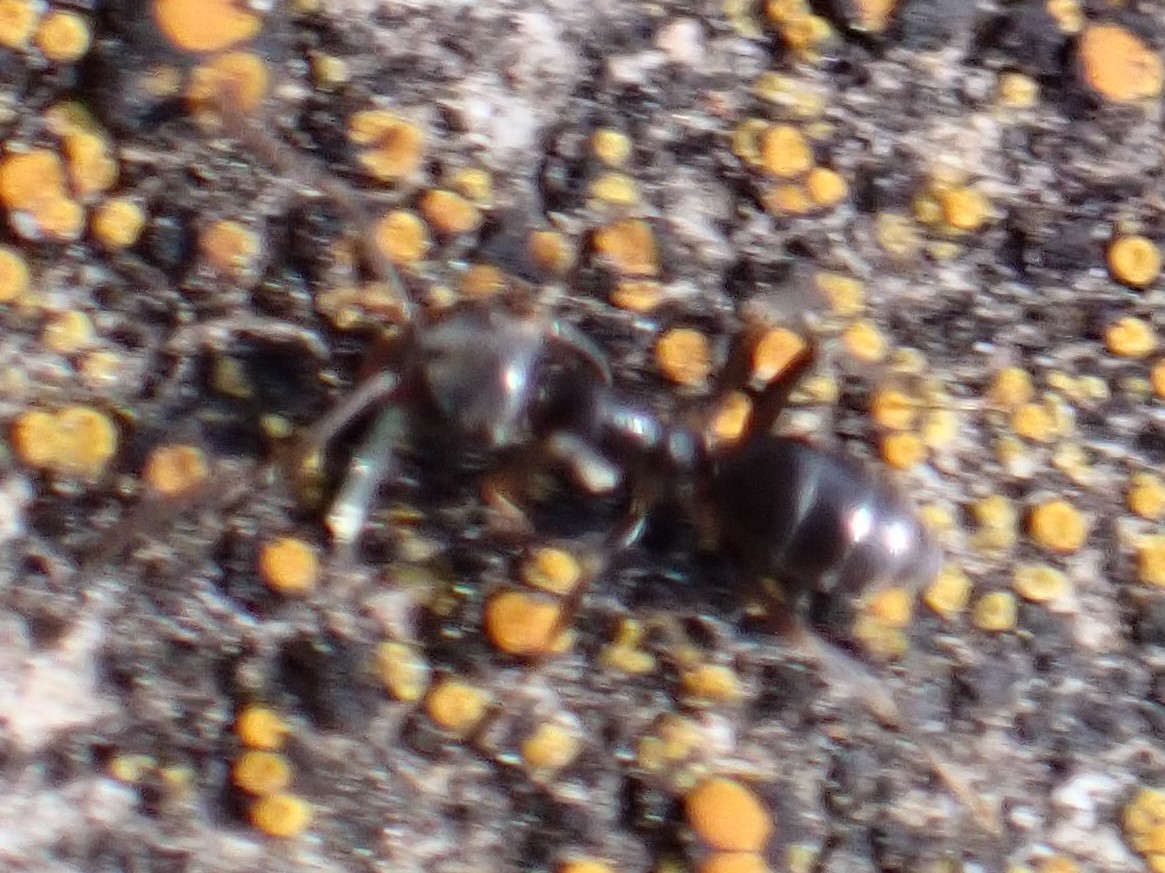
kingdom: Animalia
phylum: Arthropoda
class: Insecta
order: Hymenoptera
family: Formicidae
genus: Tapinoma
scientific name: Tapinoma sessile
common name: Odorous house ant
